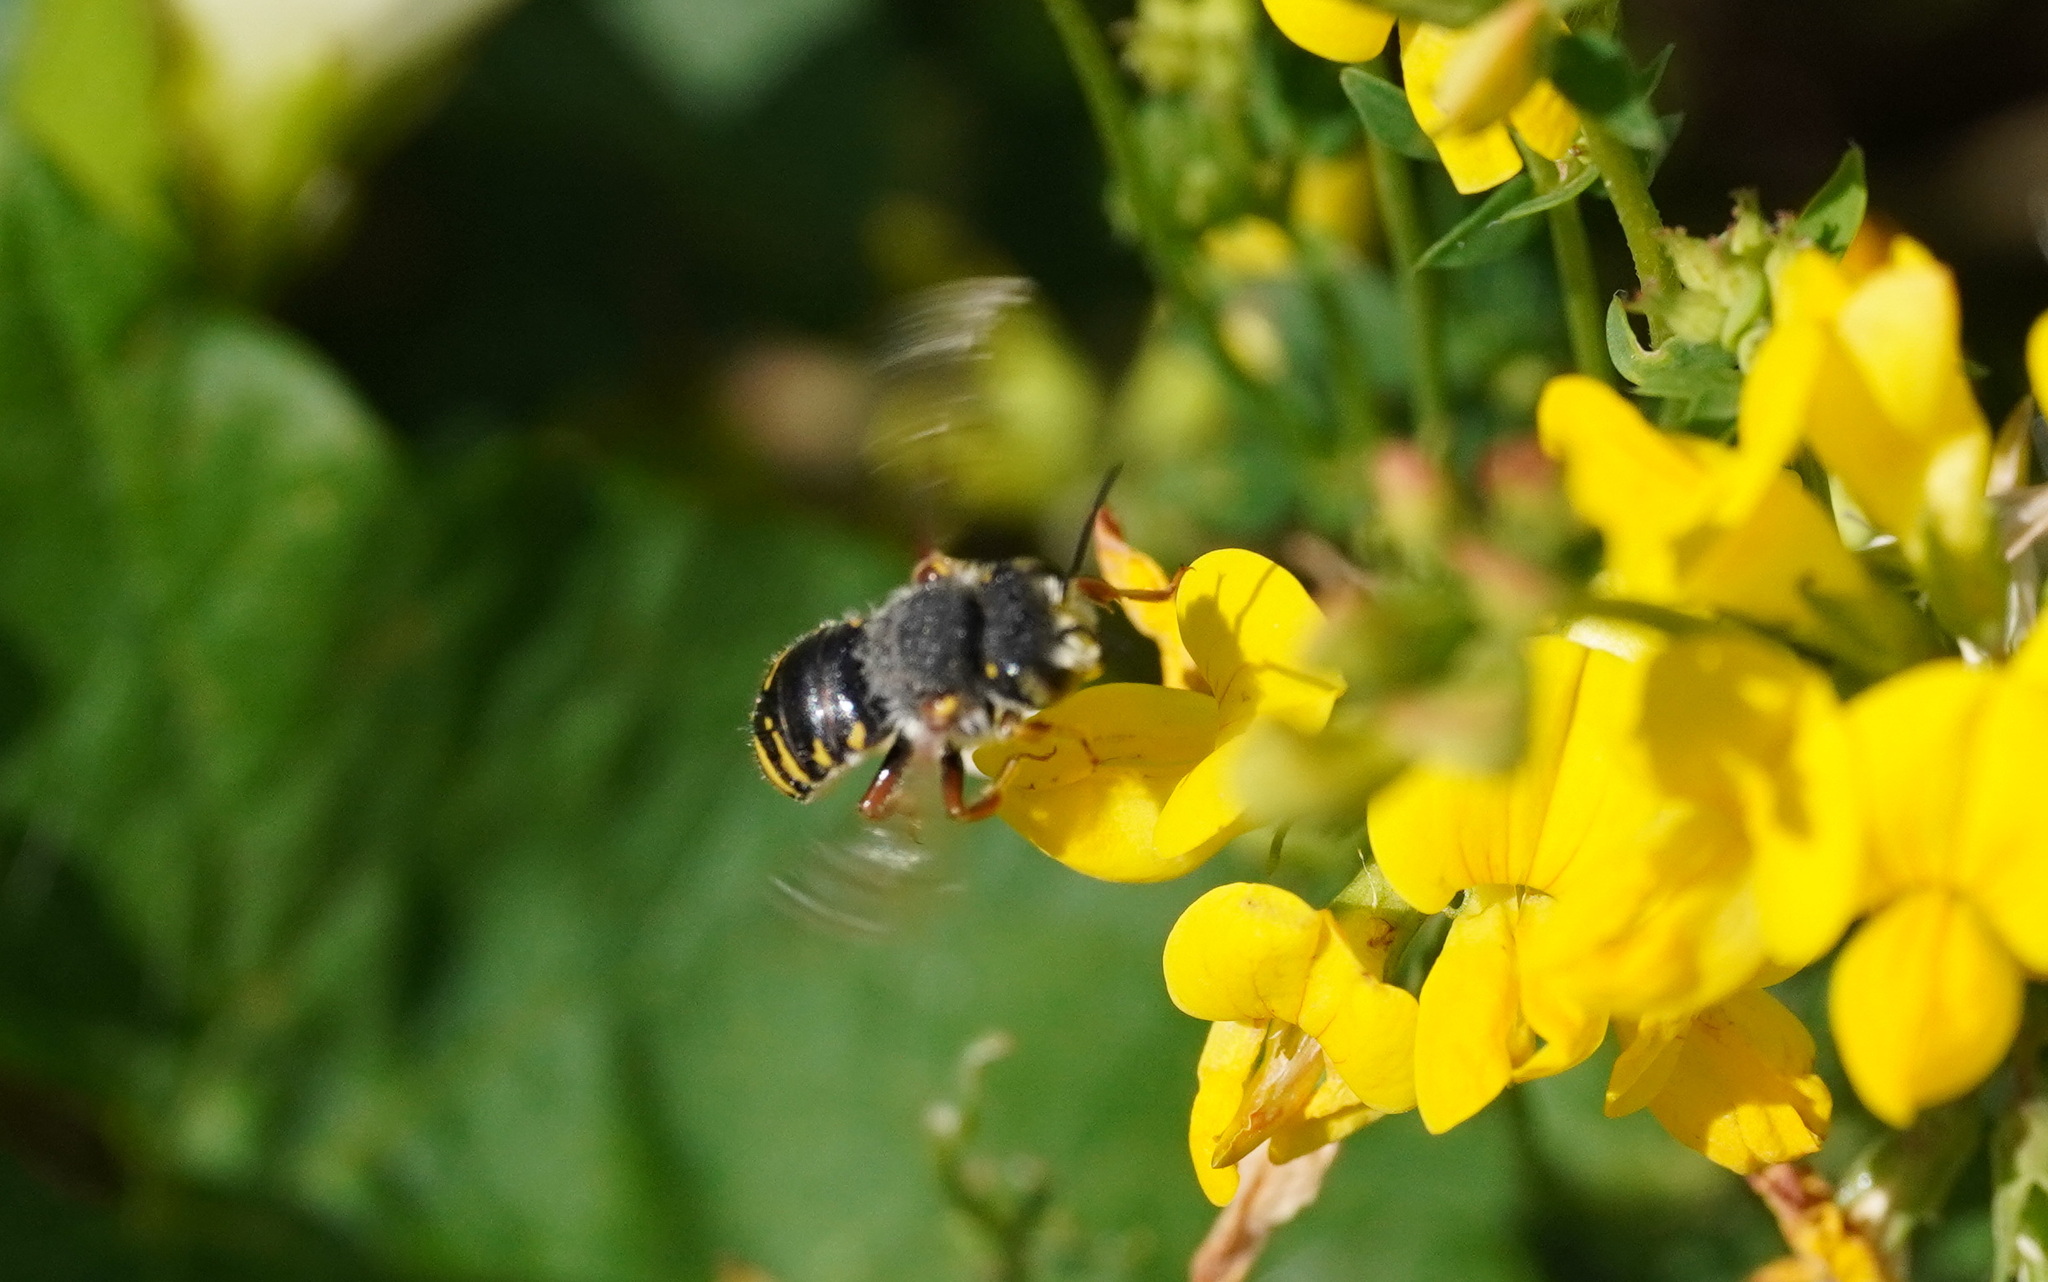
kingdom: Animalia
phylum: Arthropoda
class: Insecta
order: Hymenoptera
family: Megachilidae
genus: Anthidium
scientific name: Anthidium oblongatum
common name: Oblong wool carder bee
